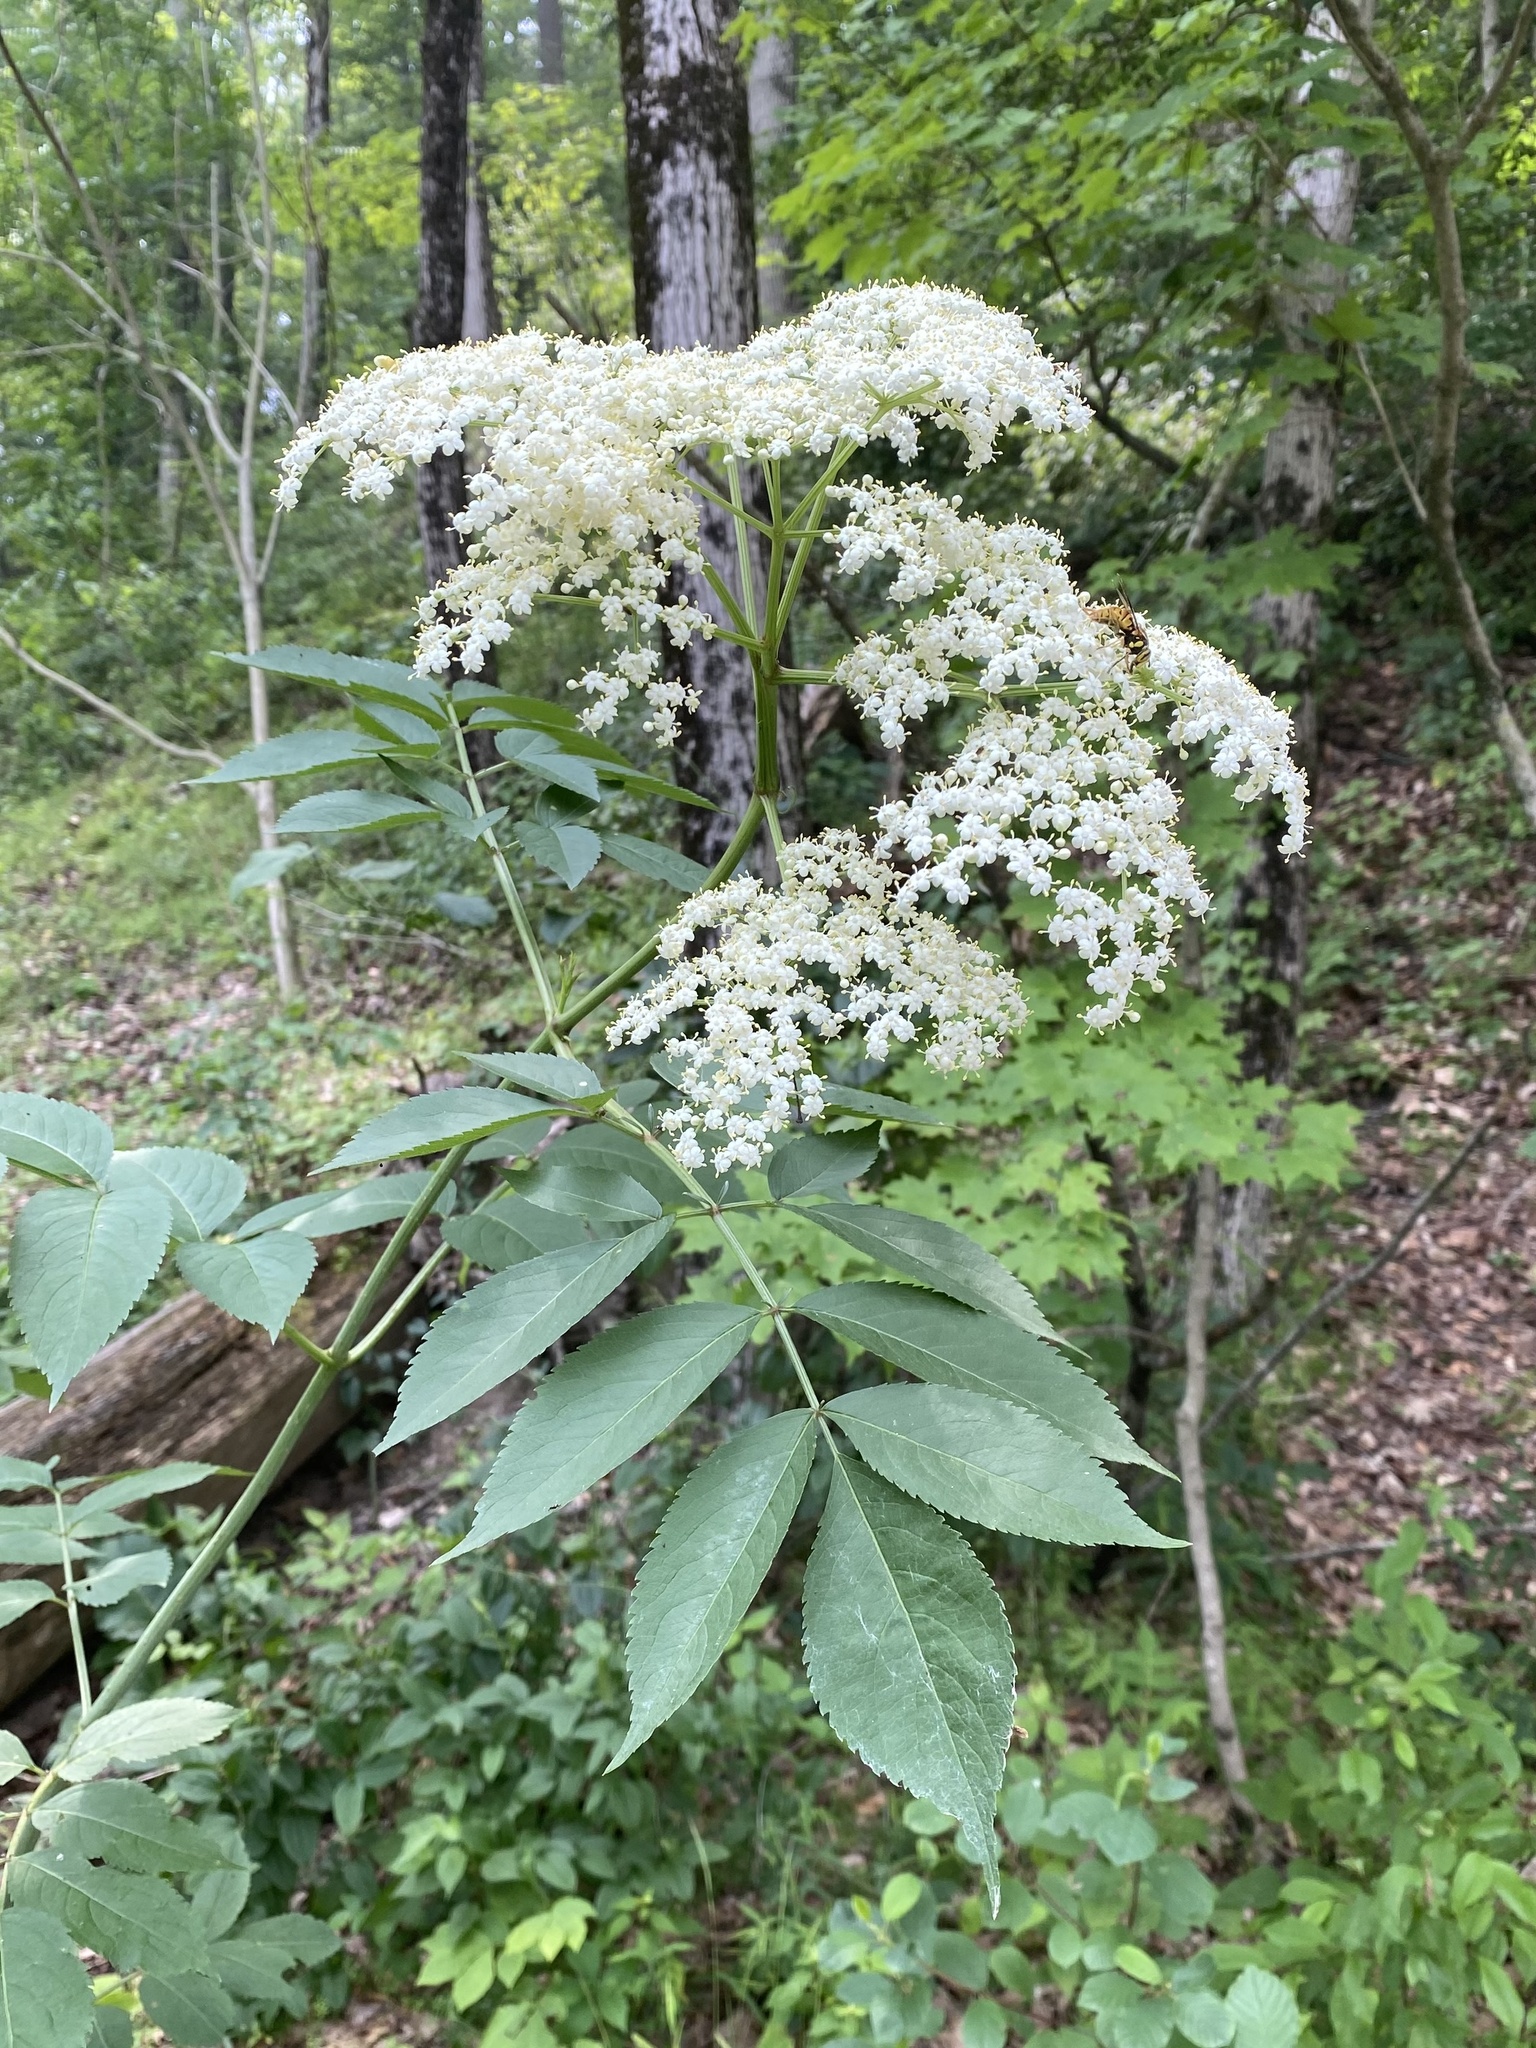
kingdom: Plantae
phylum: Tracheophyta
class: Magnoliopsida
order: Dipsacales
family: Viburnaceae
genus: Sambucus
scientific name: Sambucus canadensis
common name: American elder
